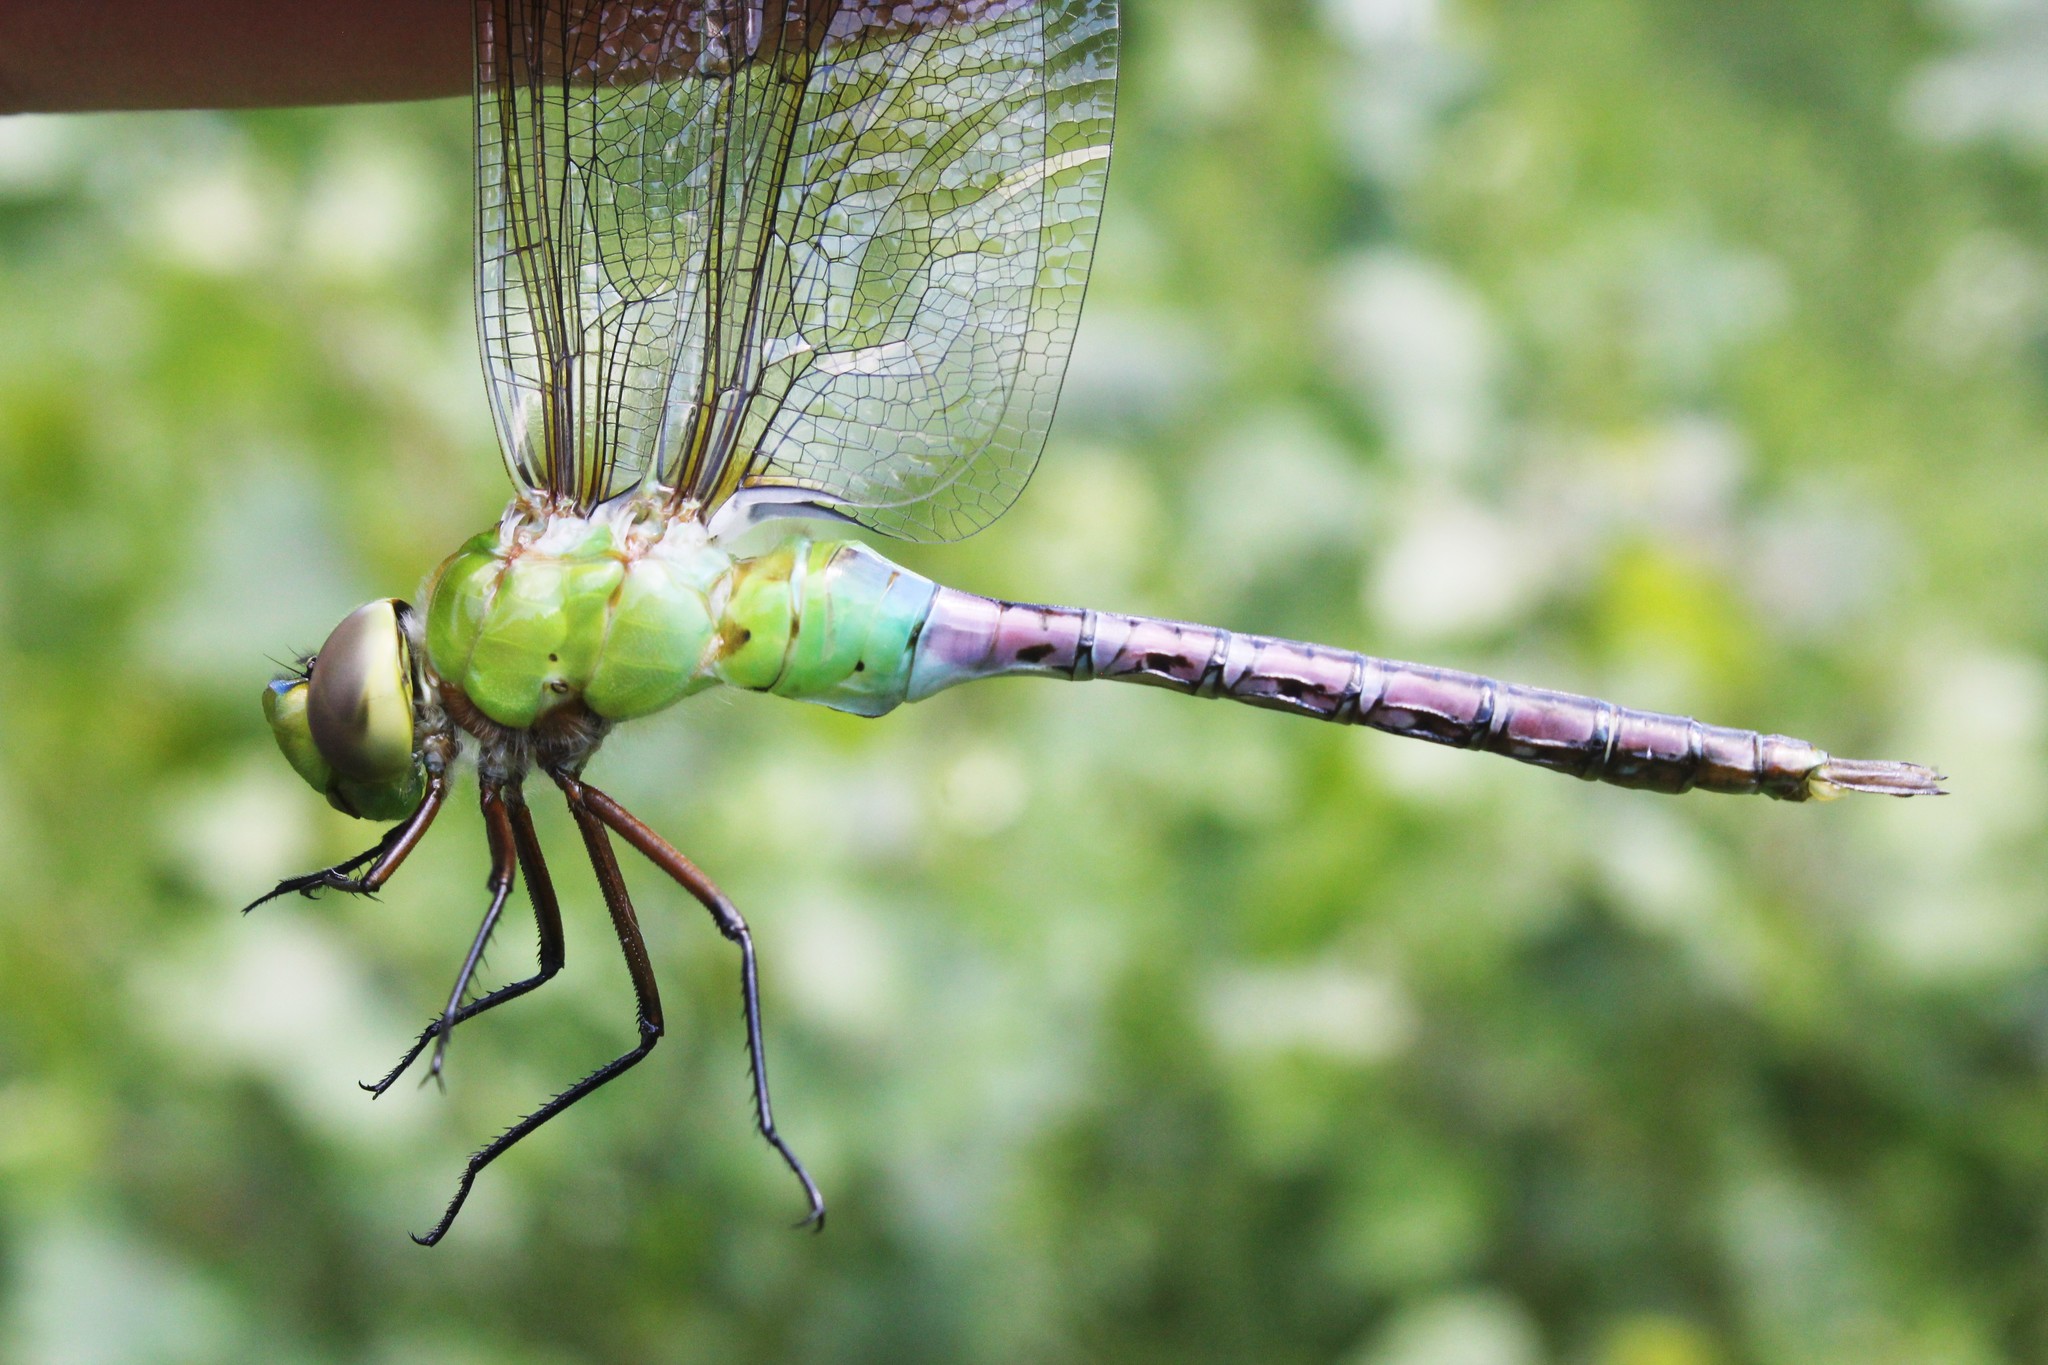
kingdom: Animalia
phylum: Arthropoda
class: Insecta
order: Odonata
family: Aeshnidae
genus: Anax
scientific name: Anax junius
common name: Common green darner
